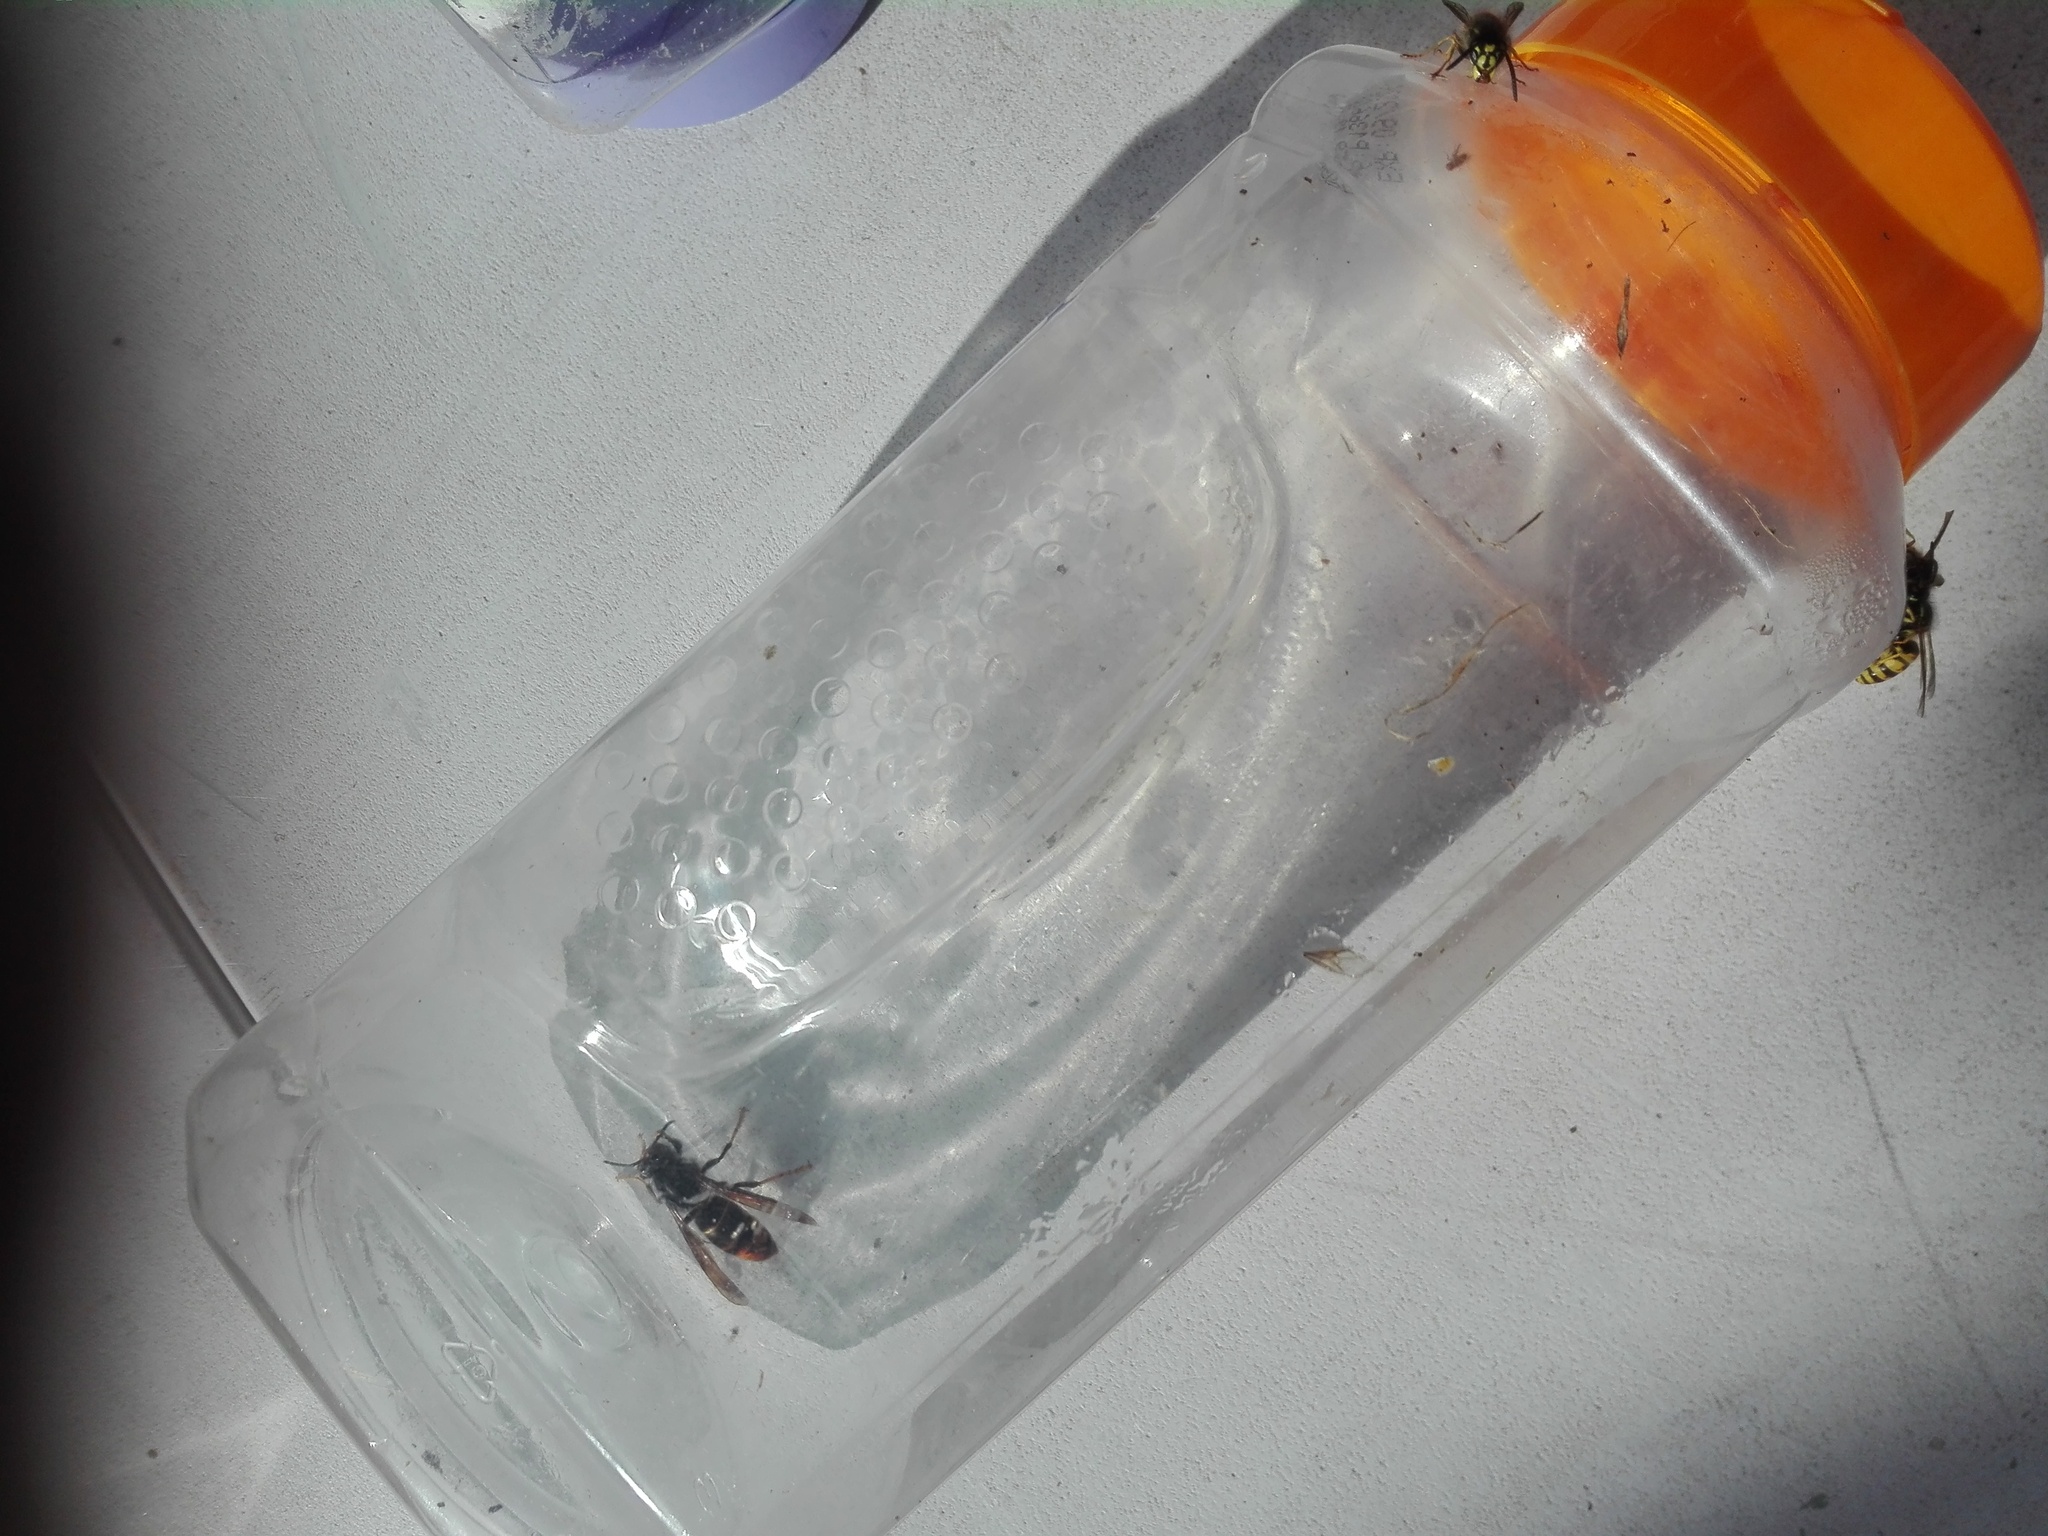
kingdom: Animalia
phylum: Arthropoda
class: Insecta
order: Hymenoptera
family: Vespidae
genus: Vespa
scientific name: Vespa velutina
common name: Asian hornet
